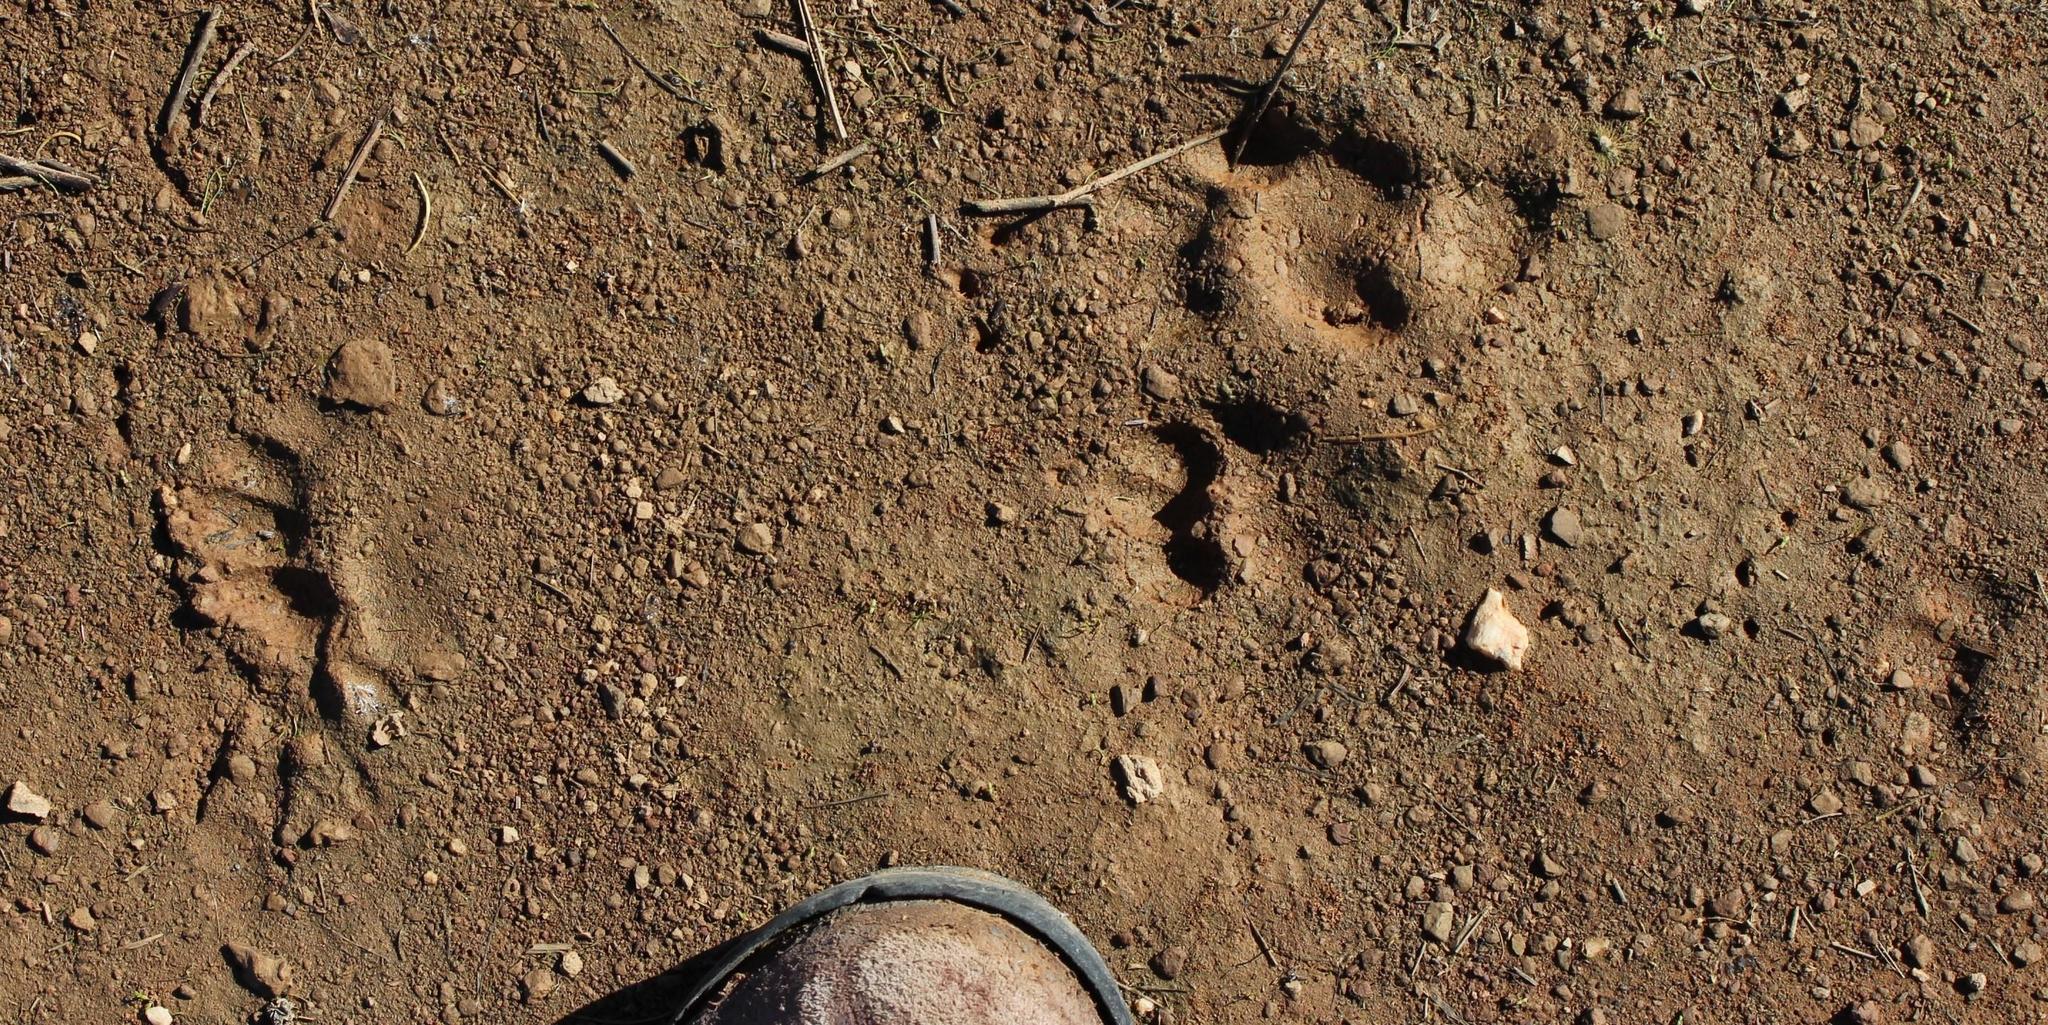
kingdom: Animalia
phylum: Chordata
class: Mammalia
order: Carnivora
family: Mustelidae
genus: Mellivora
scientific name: Mellivora capensis
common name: Honey badger
